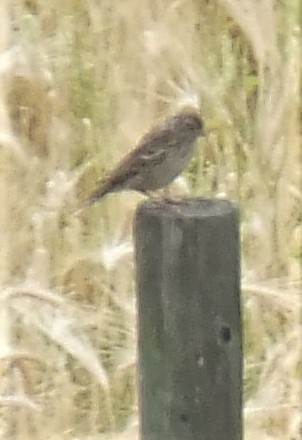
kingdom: Animalia
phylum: Chordata
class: Aves
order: Passeriformes
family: Passerellidae
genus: Pooecetes
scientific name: Pooecetes gramineus
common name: Vesper sparrow
